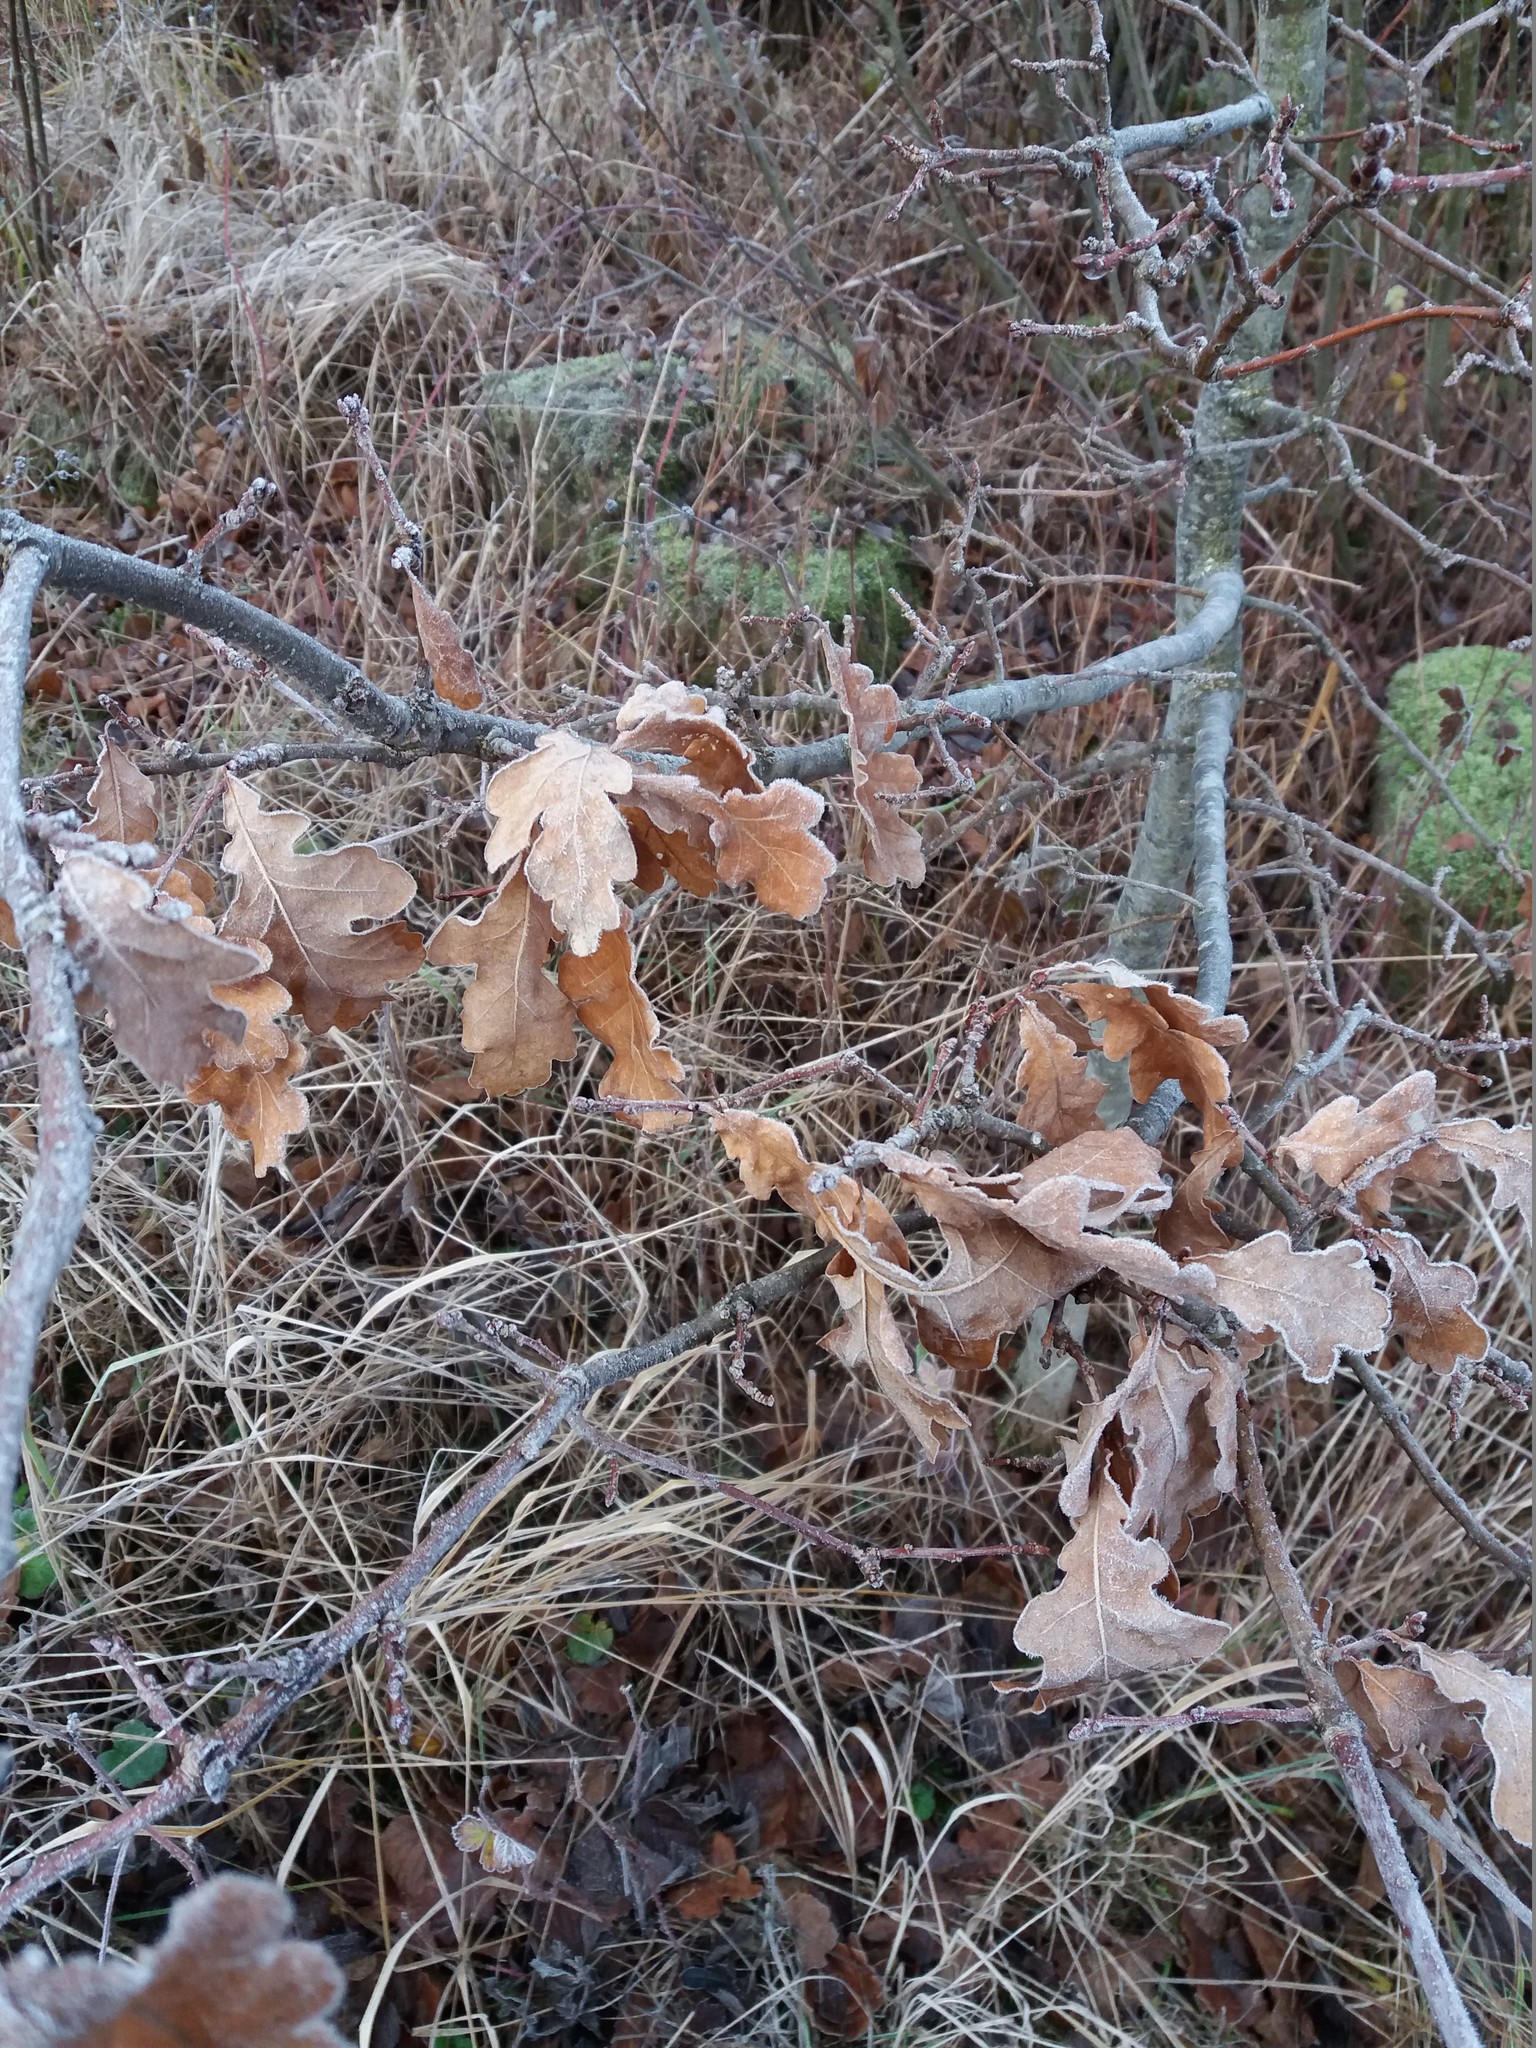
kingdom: Plantae
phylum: Tracheophyta
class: Magnoliopsida
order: Fagales
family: Fagaceae
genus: Quercus
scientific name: Quercus robur
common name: Pedunculate oak
